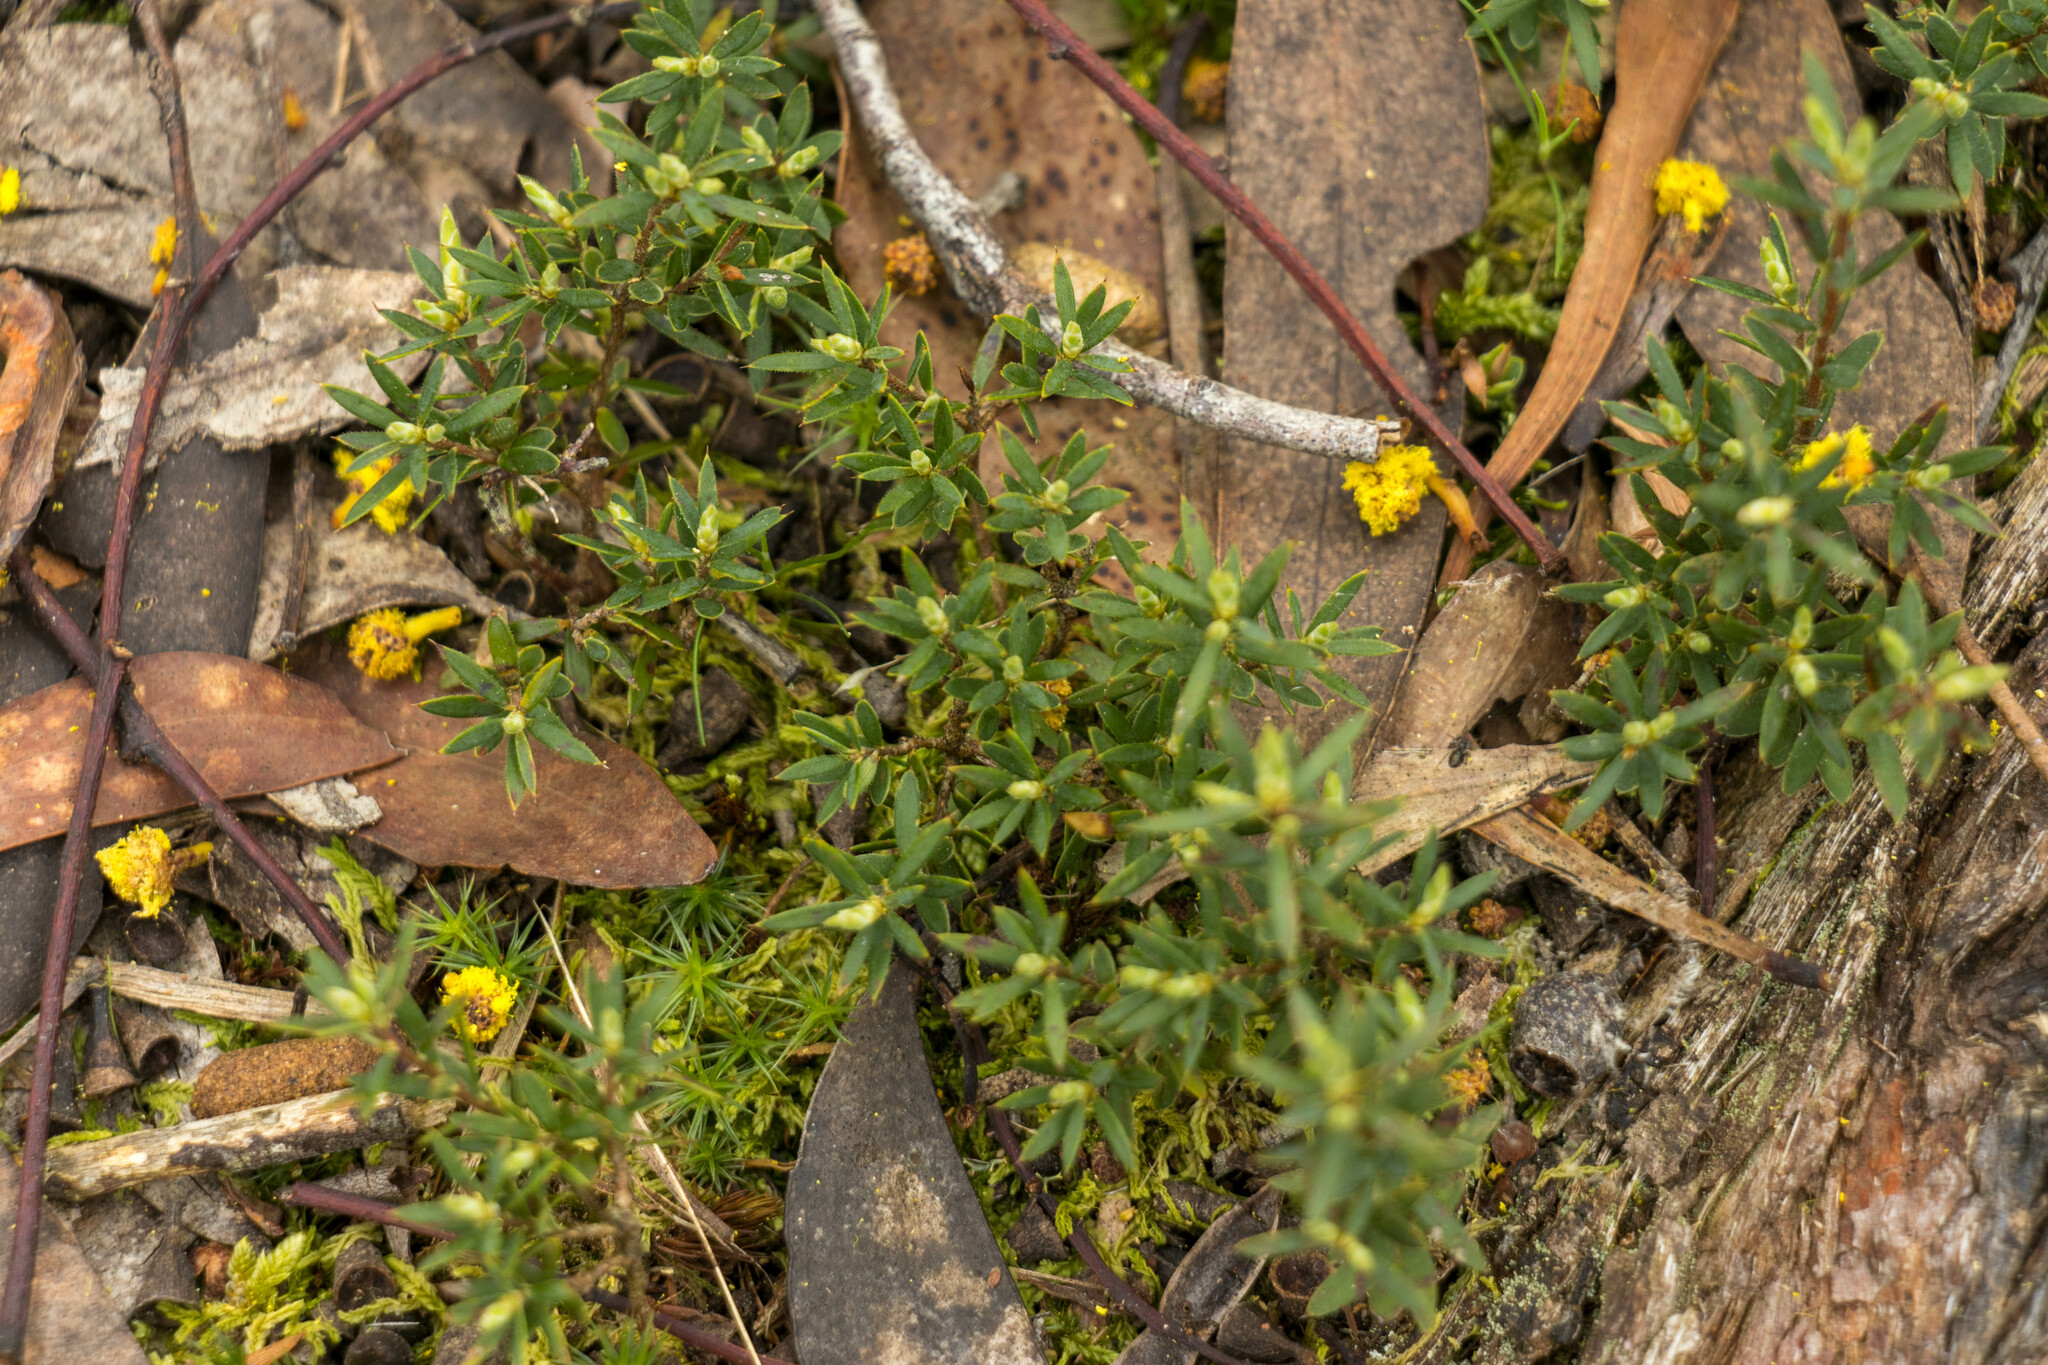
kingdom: Plantae
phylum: Tracheophyta
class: Magnoliopsida
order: Ericales
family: Ericaceae
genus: Styphelia
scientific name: Styphelia humifusa
